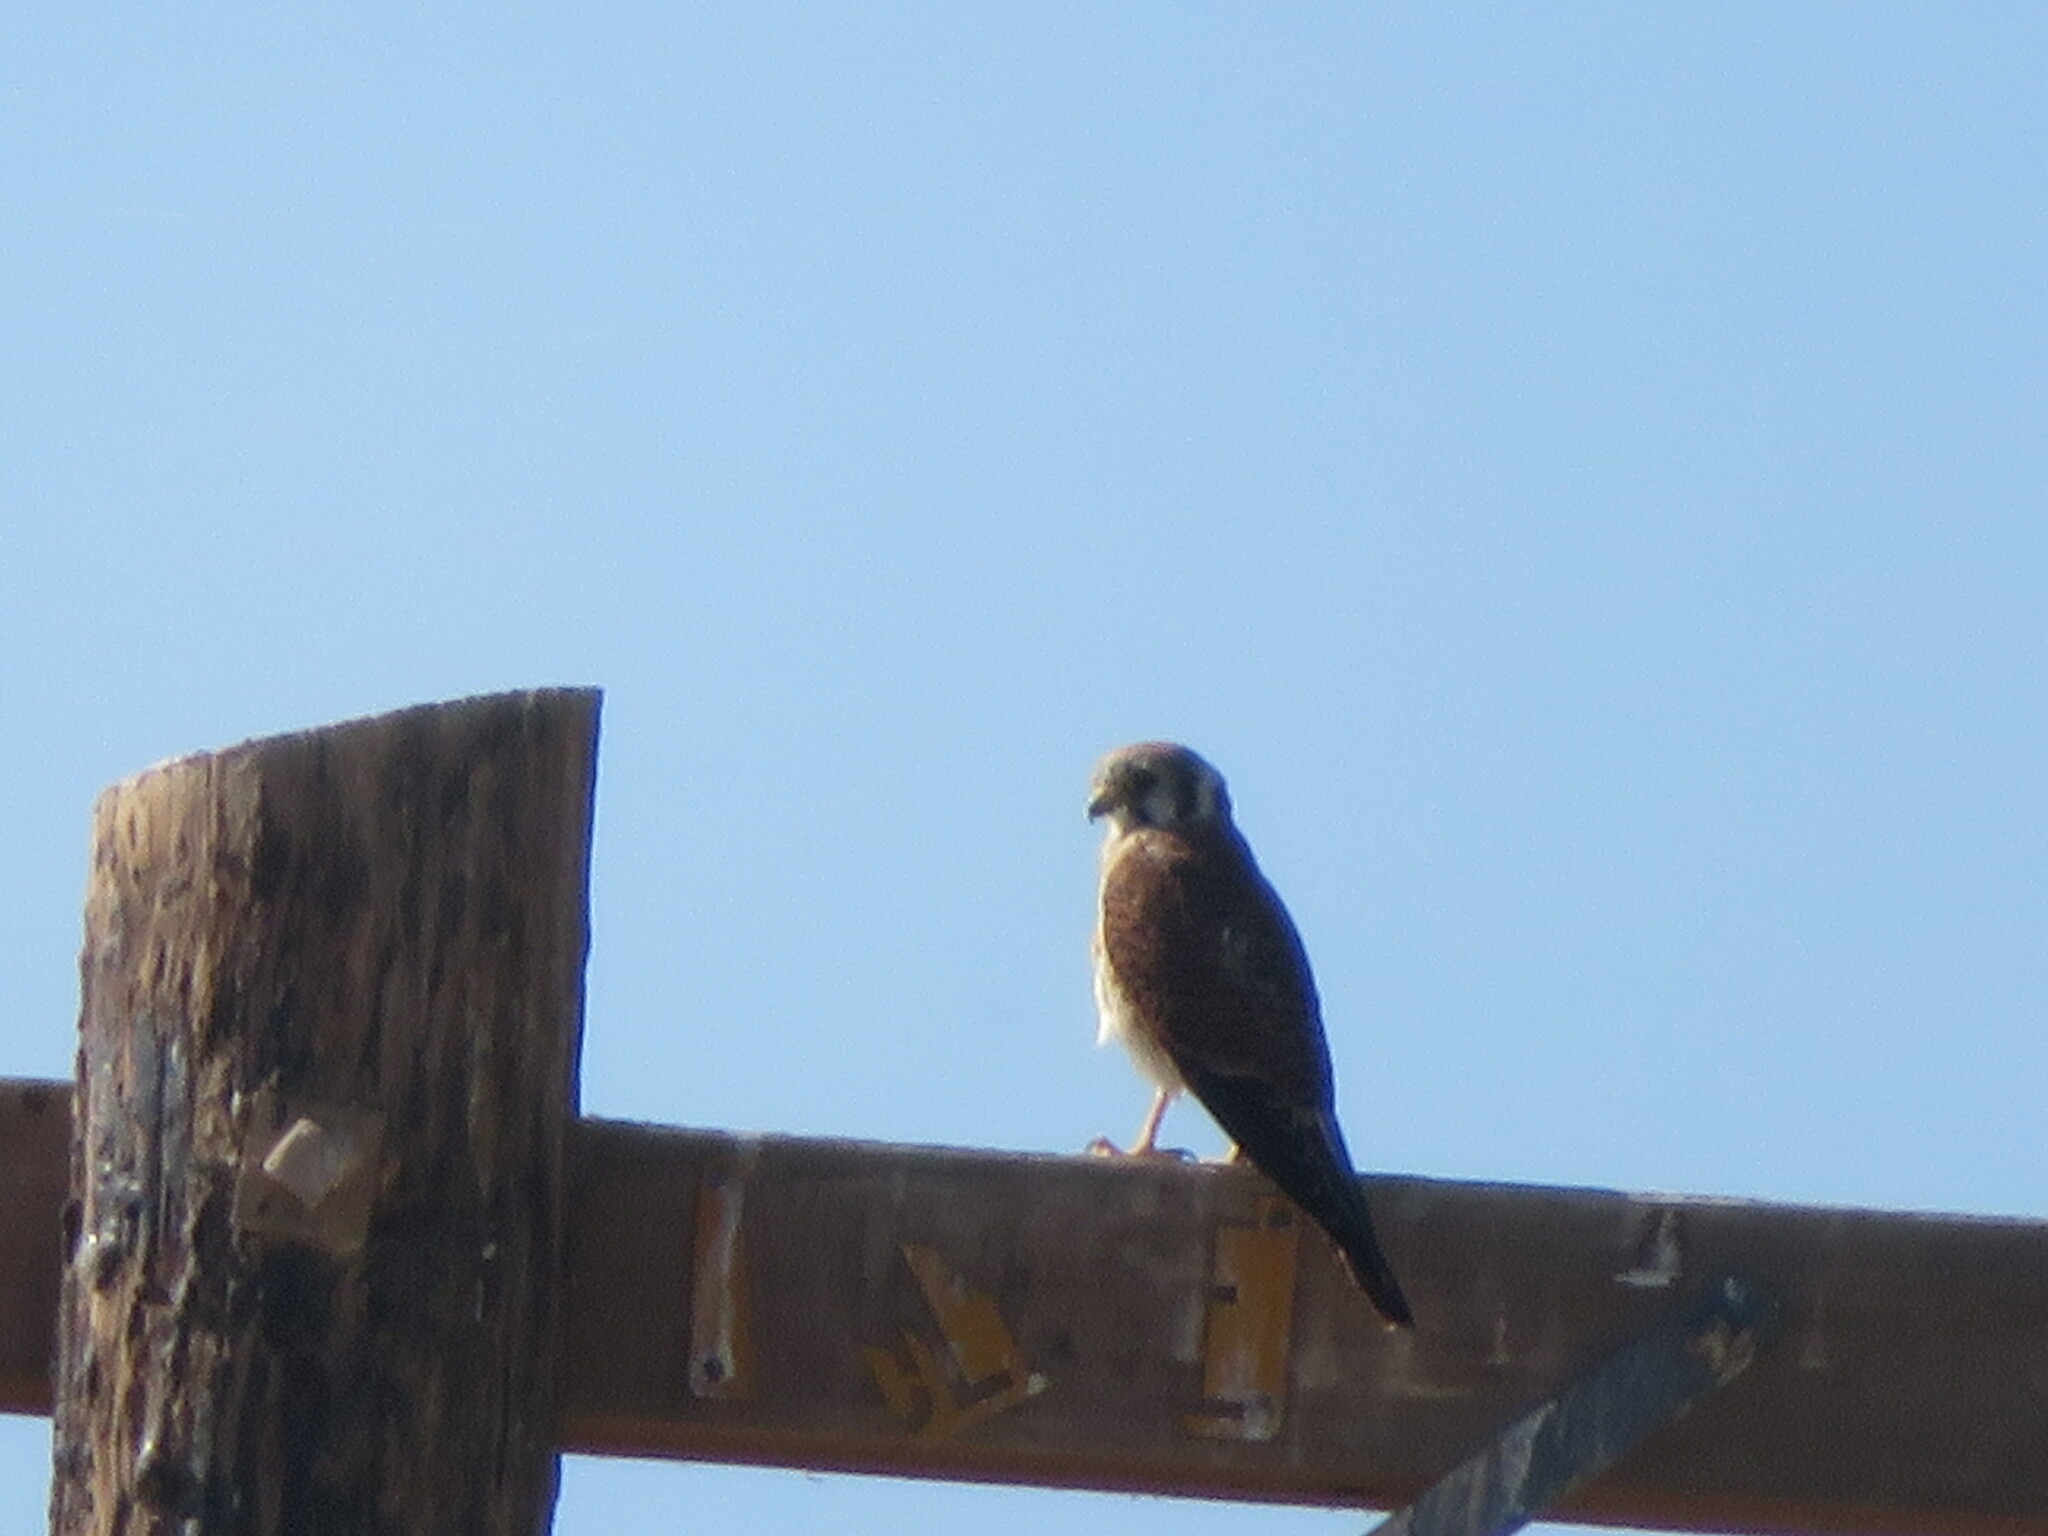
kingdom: Animalia
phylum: Chordata
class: Aves
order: Falconiformes
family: Falconidae
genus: Falco
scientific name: Falco sparverius
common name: American kestrel
